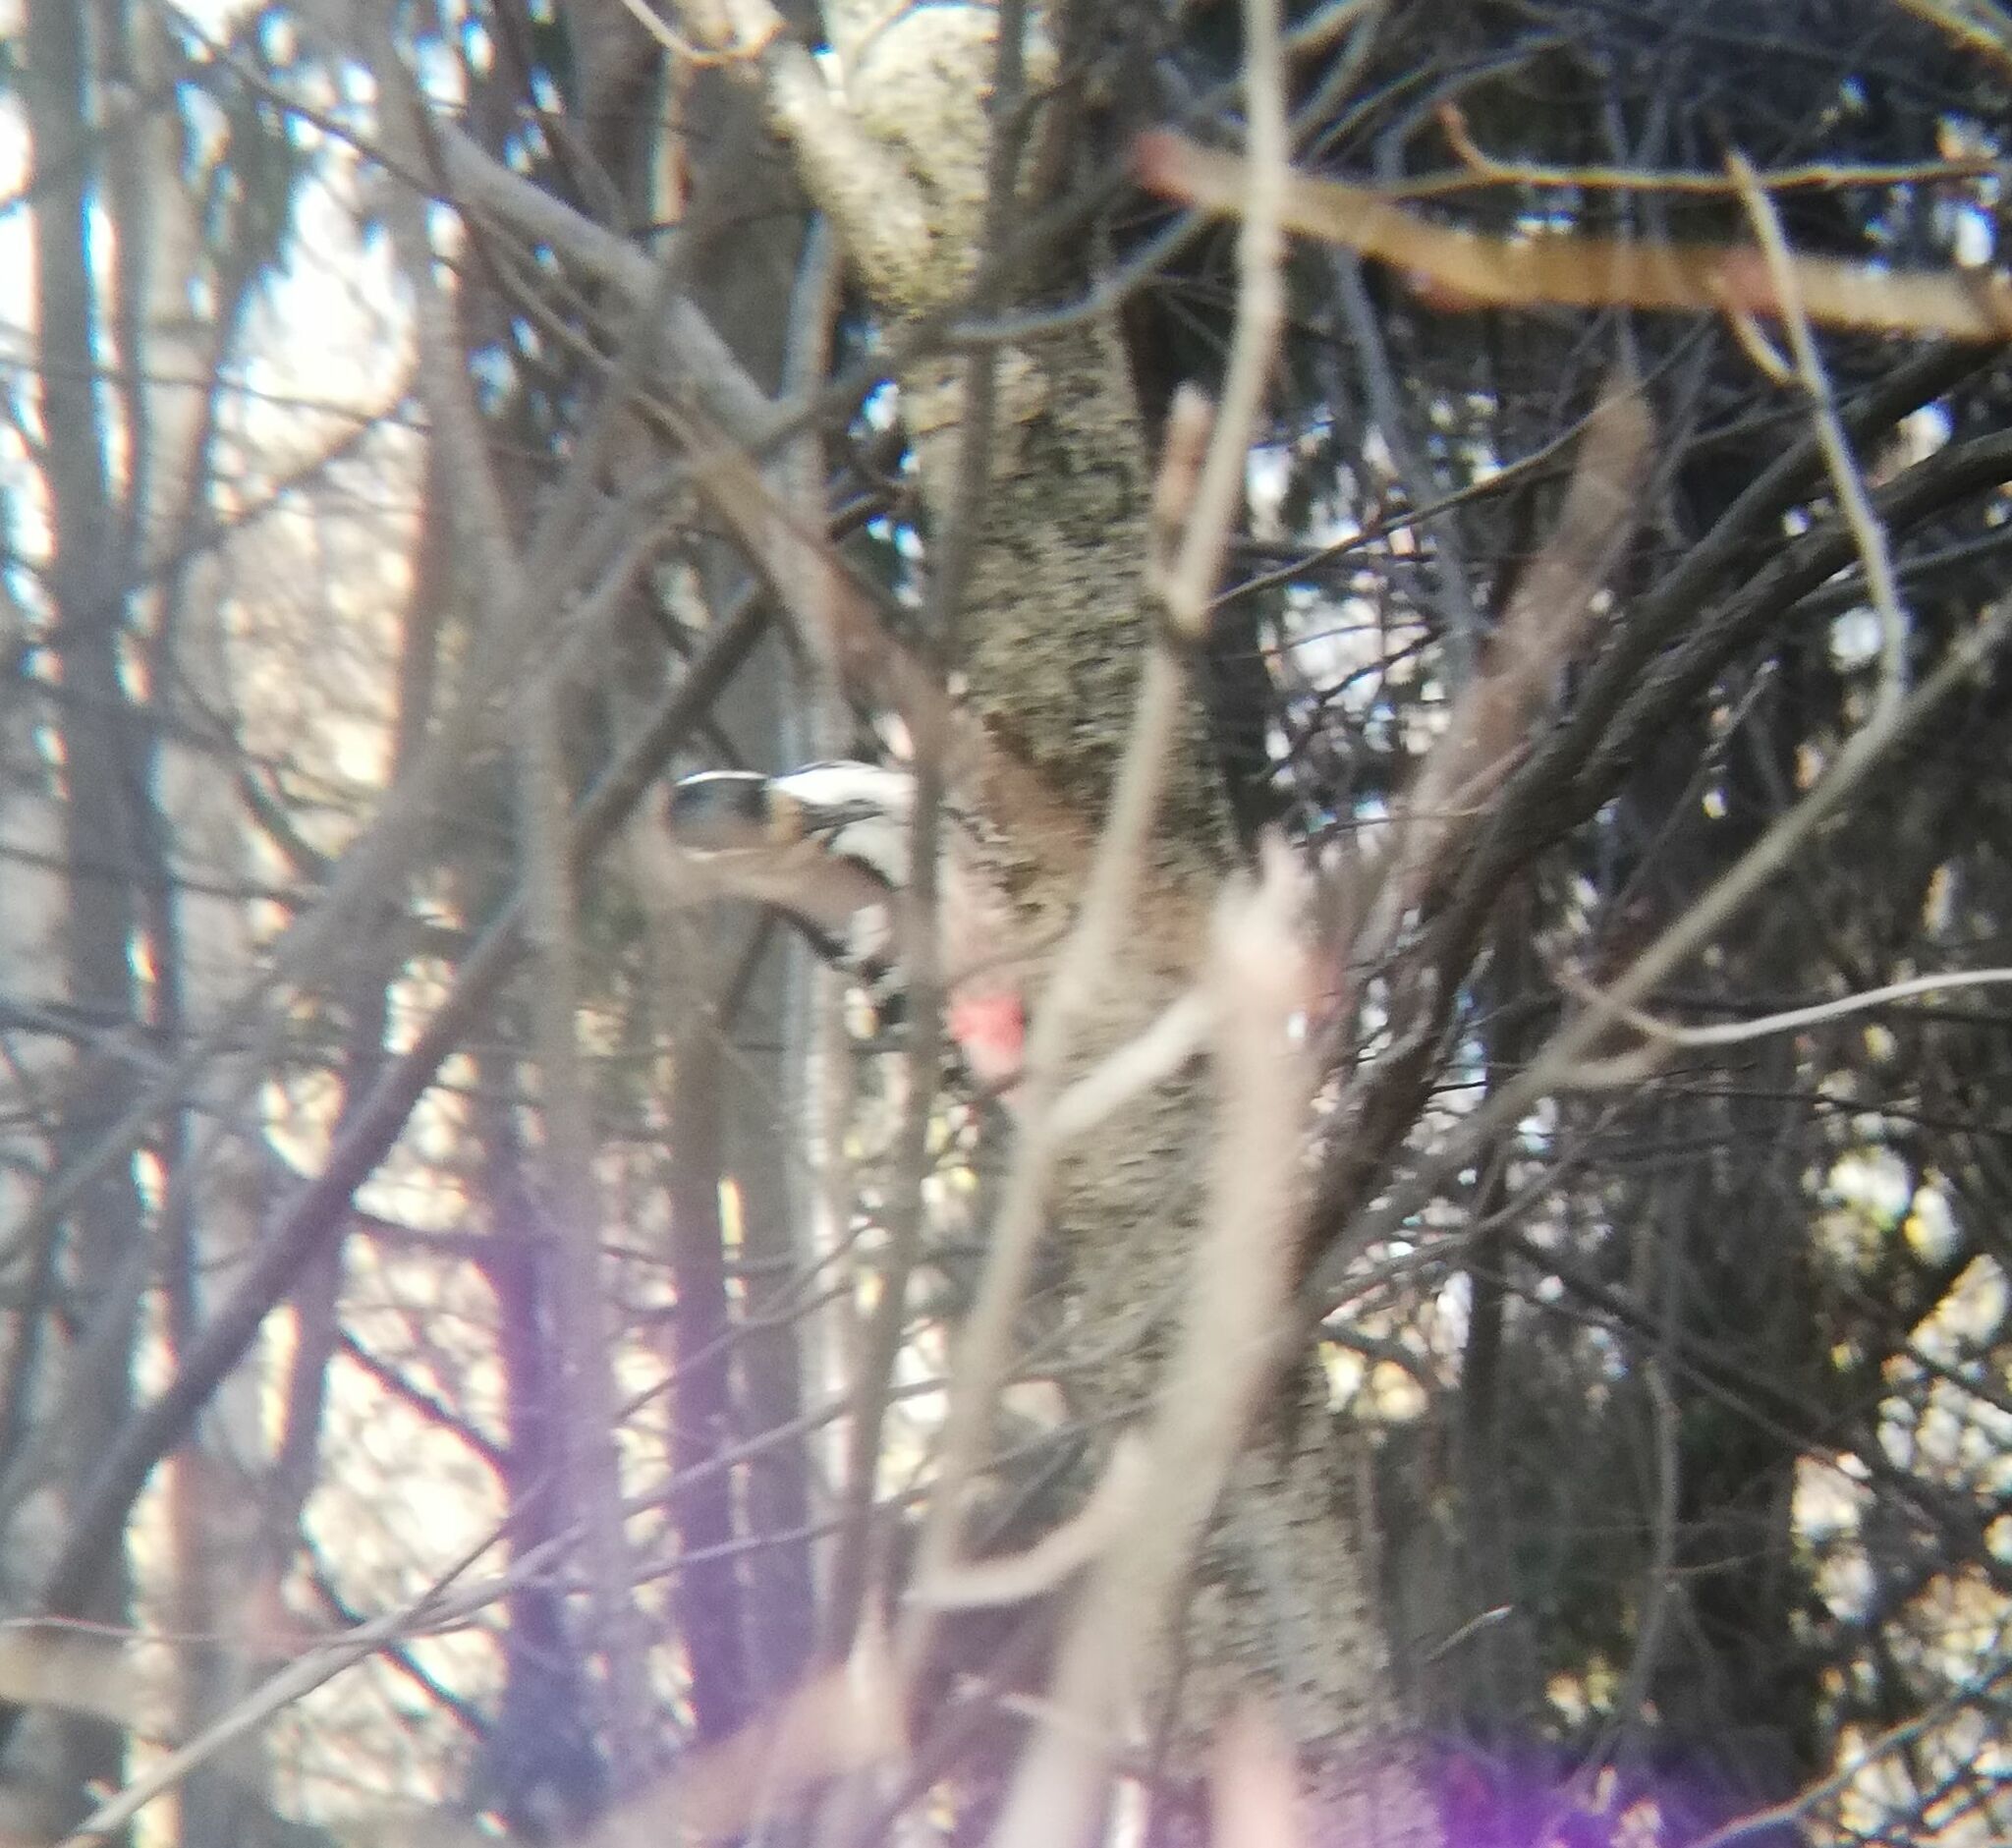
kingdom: Animalia
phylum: Chordata
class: Aves
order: Piciformes
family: Picidae
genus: Dendrocopos
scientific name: Dendrocopos leucotos
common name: White-backed woodpecker
